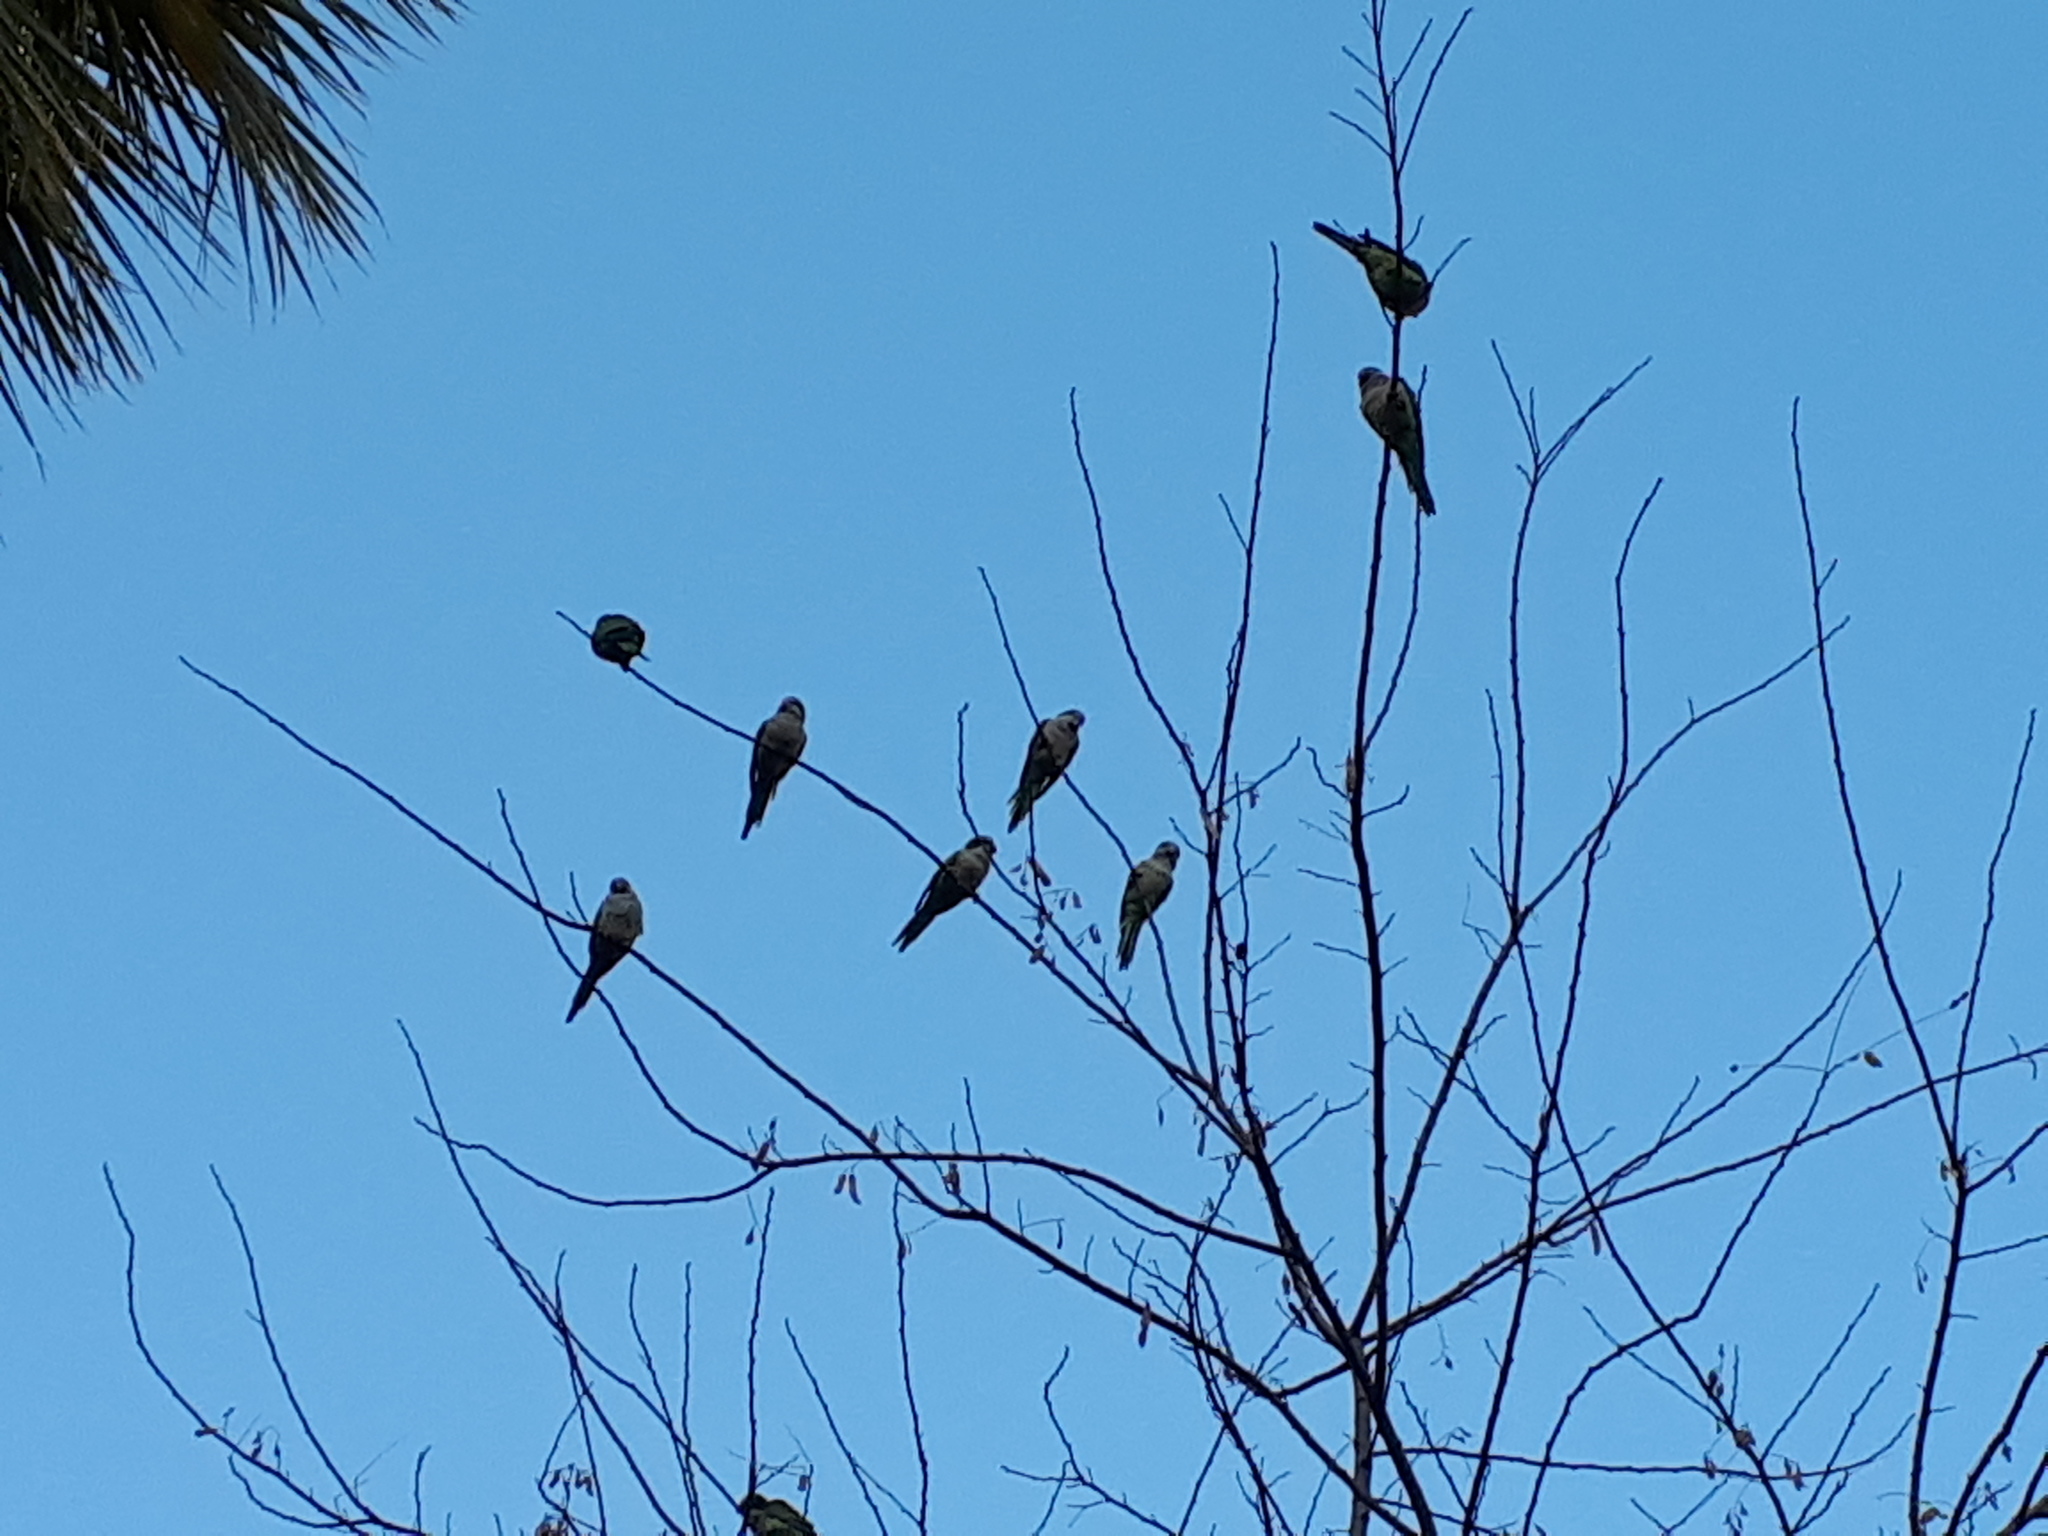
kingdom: Animalia
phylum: Chordata
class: Aves
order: Psittaciformes
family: Psittacidae
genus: Myiopsitta
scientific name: Myiopsitta monachus
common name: Monk parakeet
